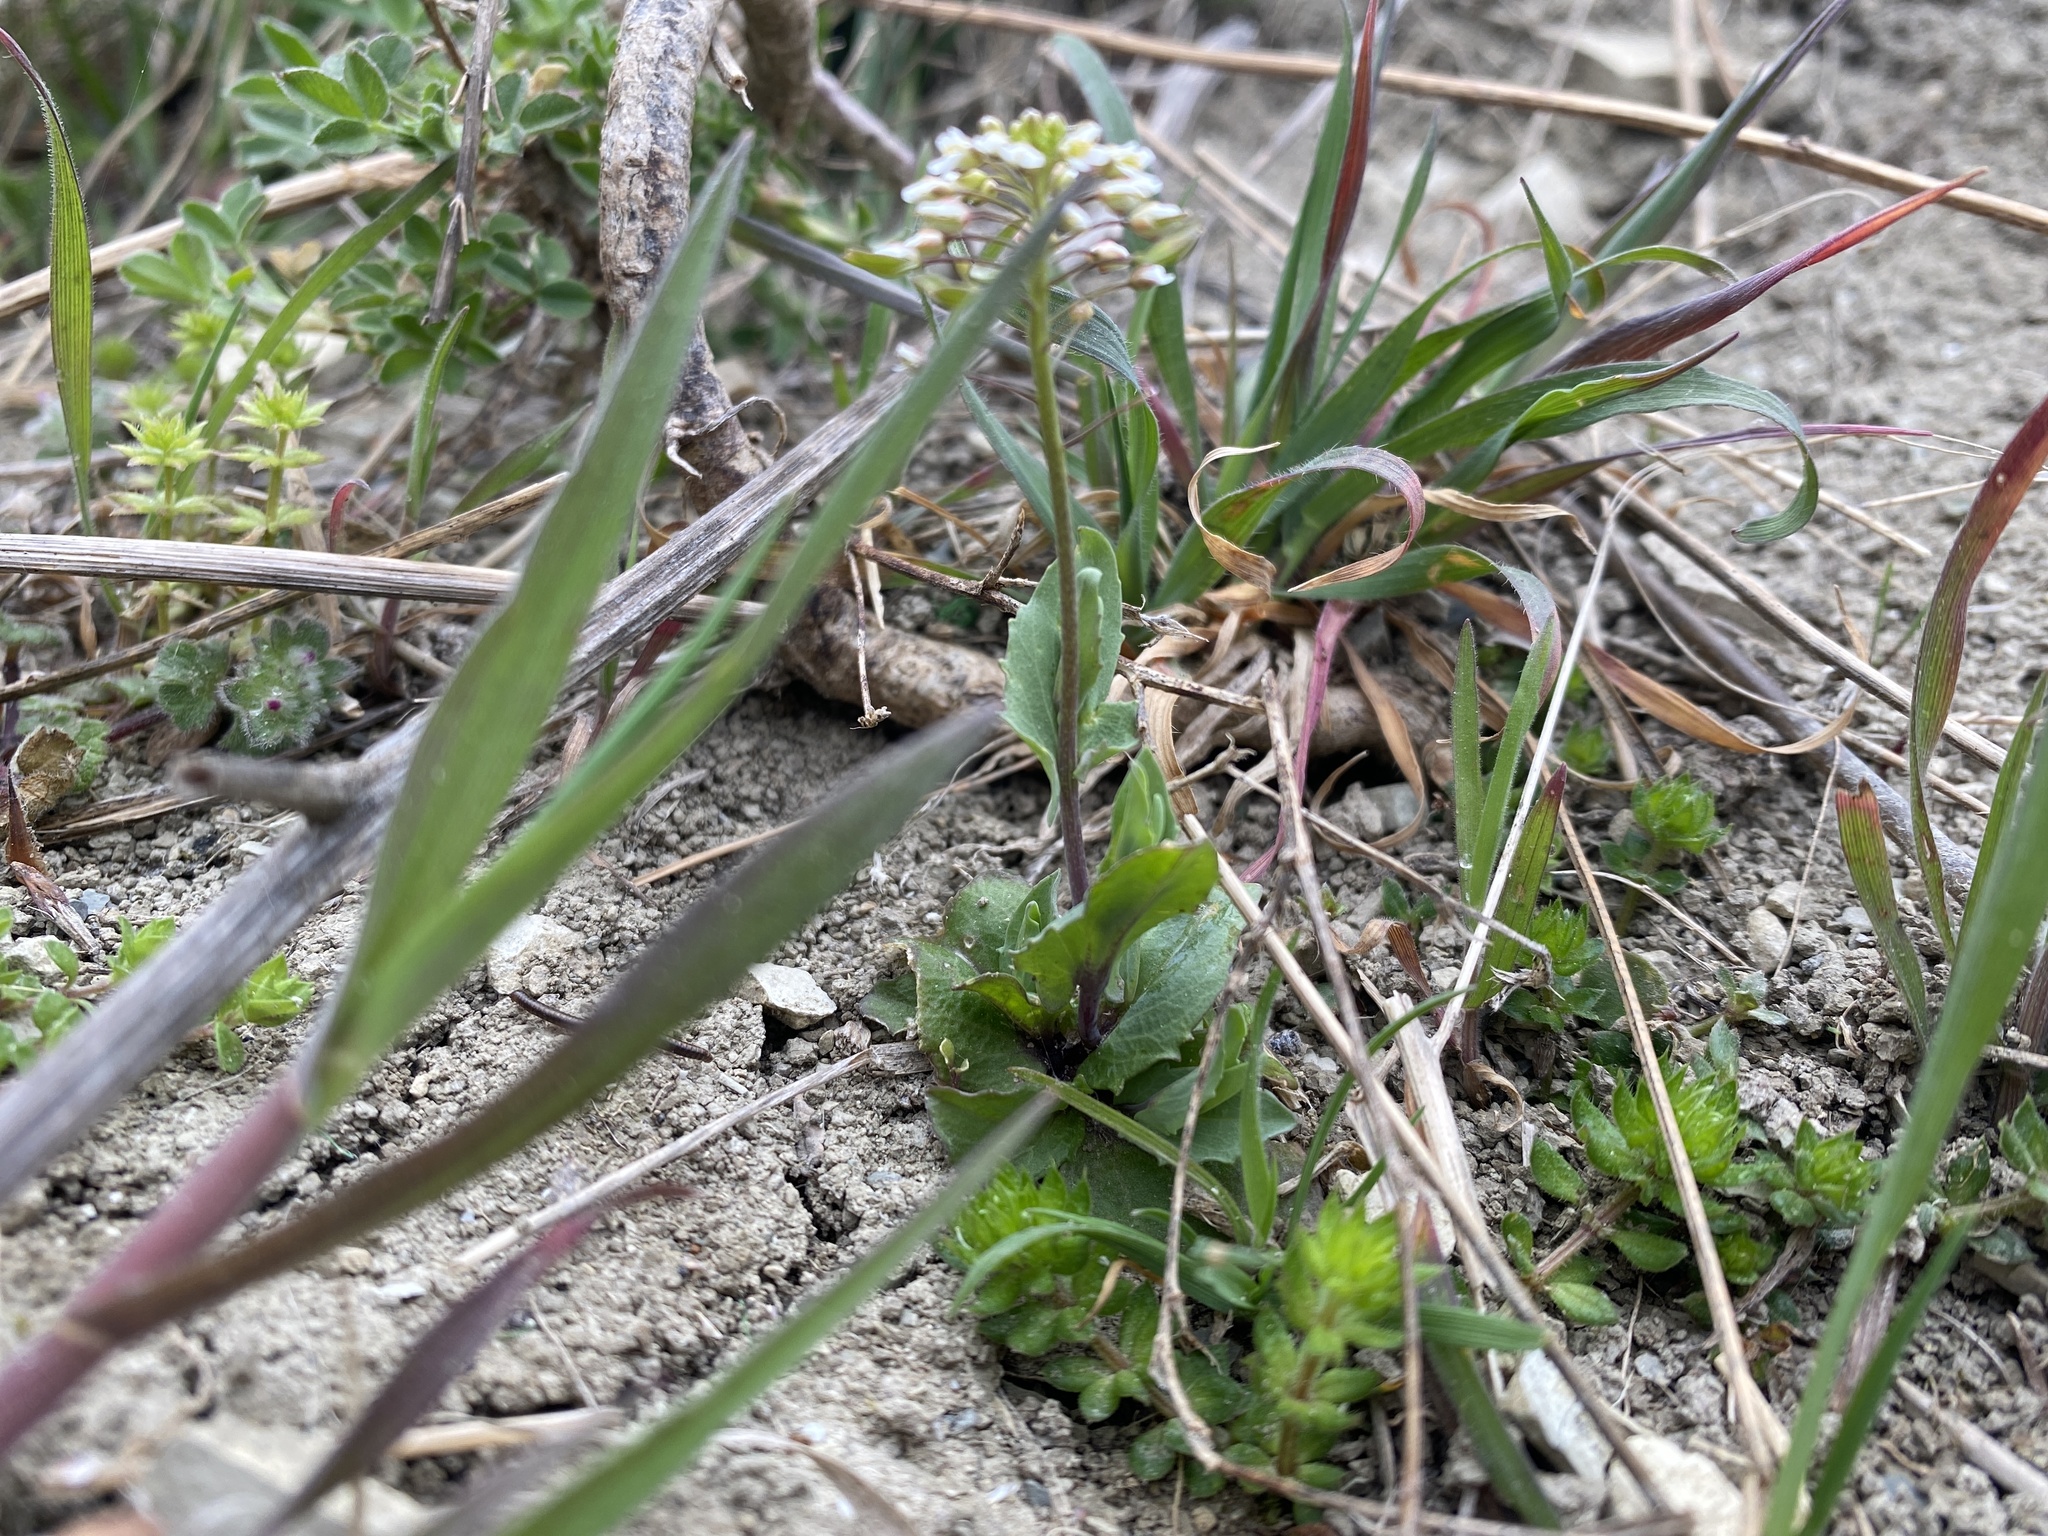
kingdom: Plantae
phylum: Tracheophyta
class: Magnoliopsida
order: Brassicales
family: Brassicaceae
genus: Noccaea
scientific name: Noccaea perfoliata
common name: Perfoliate pennycress
